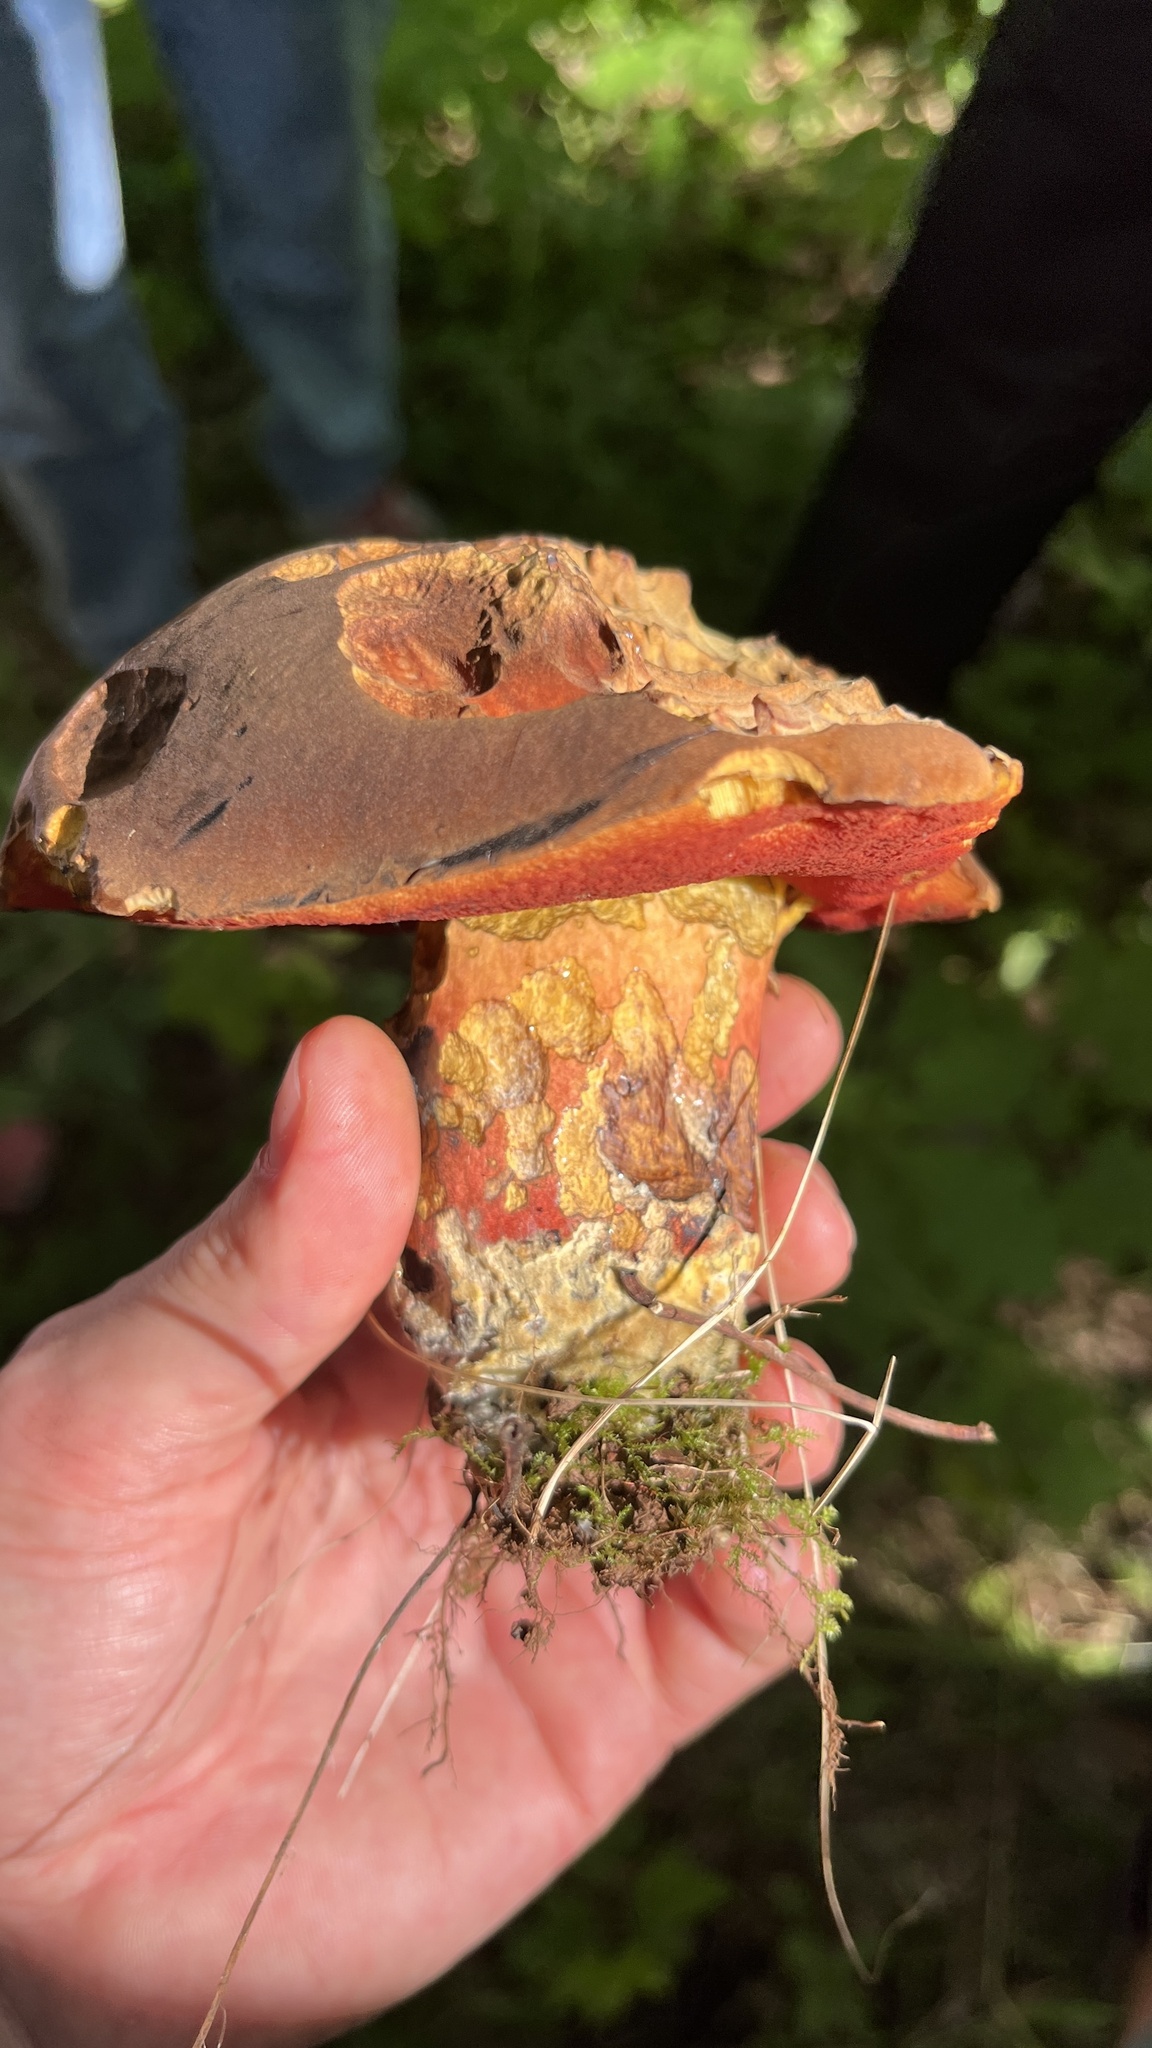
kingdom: Fungi
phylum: Basidiomycota
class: Agaricomycetes
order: Boletales
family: Boletaceae
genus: Suillellus
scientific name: Suillellus luridus
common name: Lurid bolete
